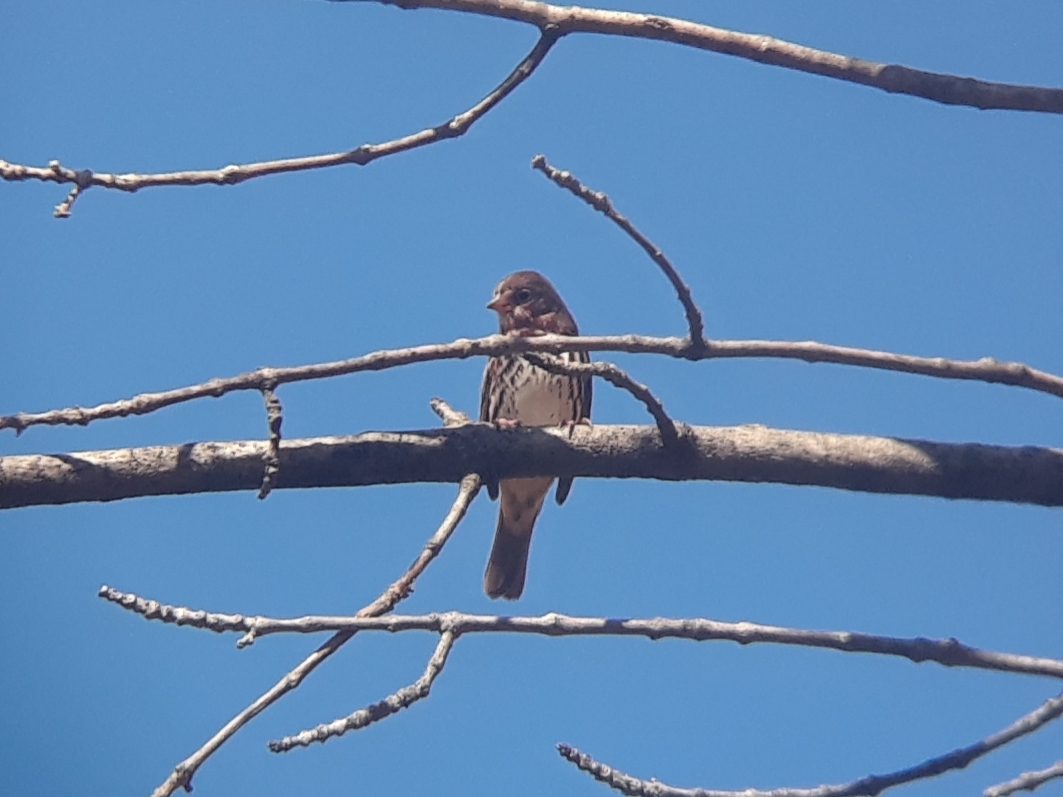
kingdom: Animalia
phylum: Chordata
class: Aves
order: Passeriformes
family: Passerellidae
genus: Passerella
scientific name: Passerella iliaca
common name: Fox sparrow
